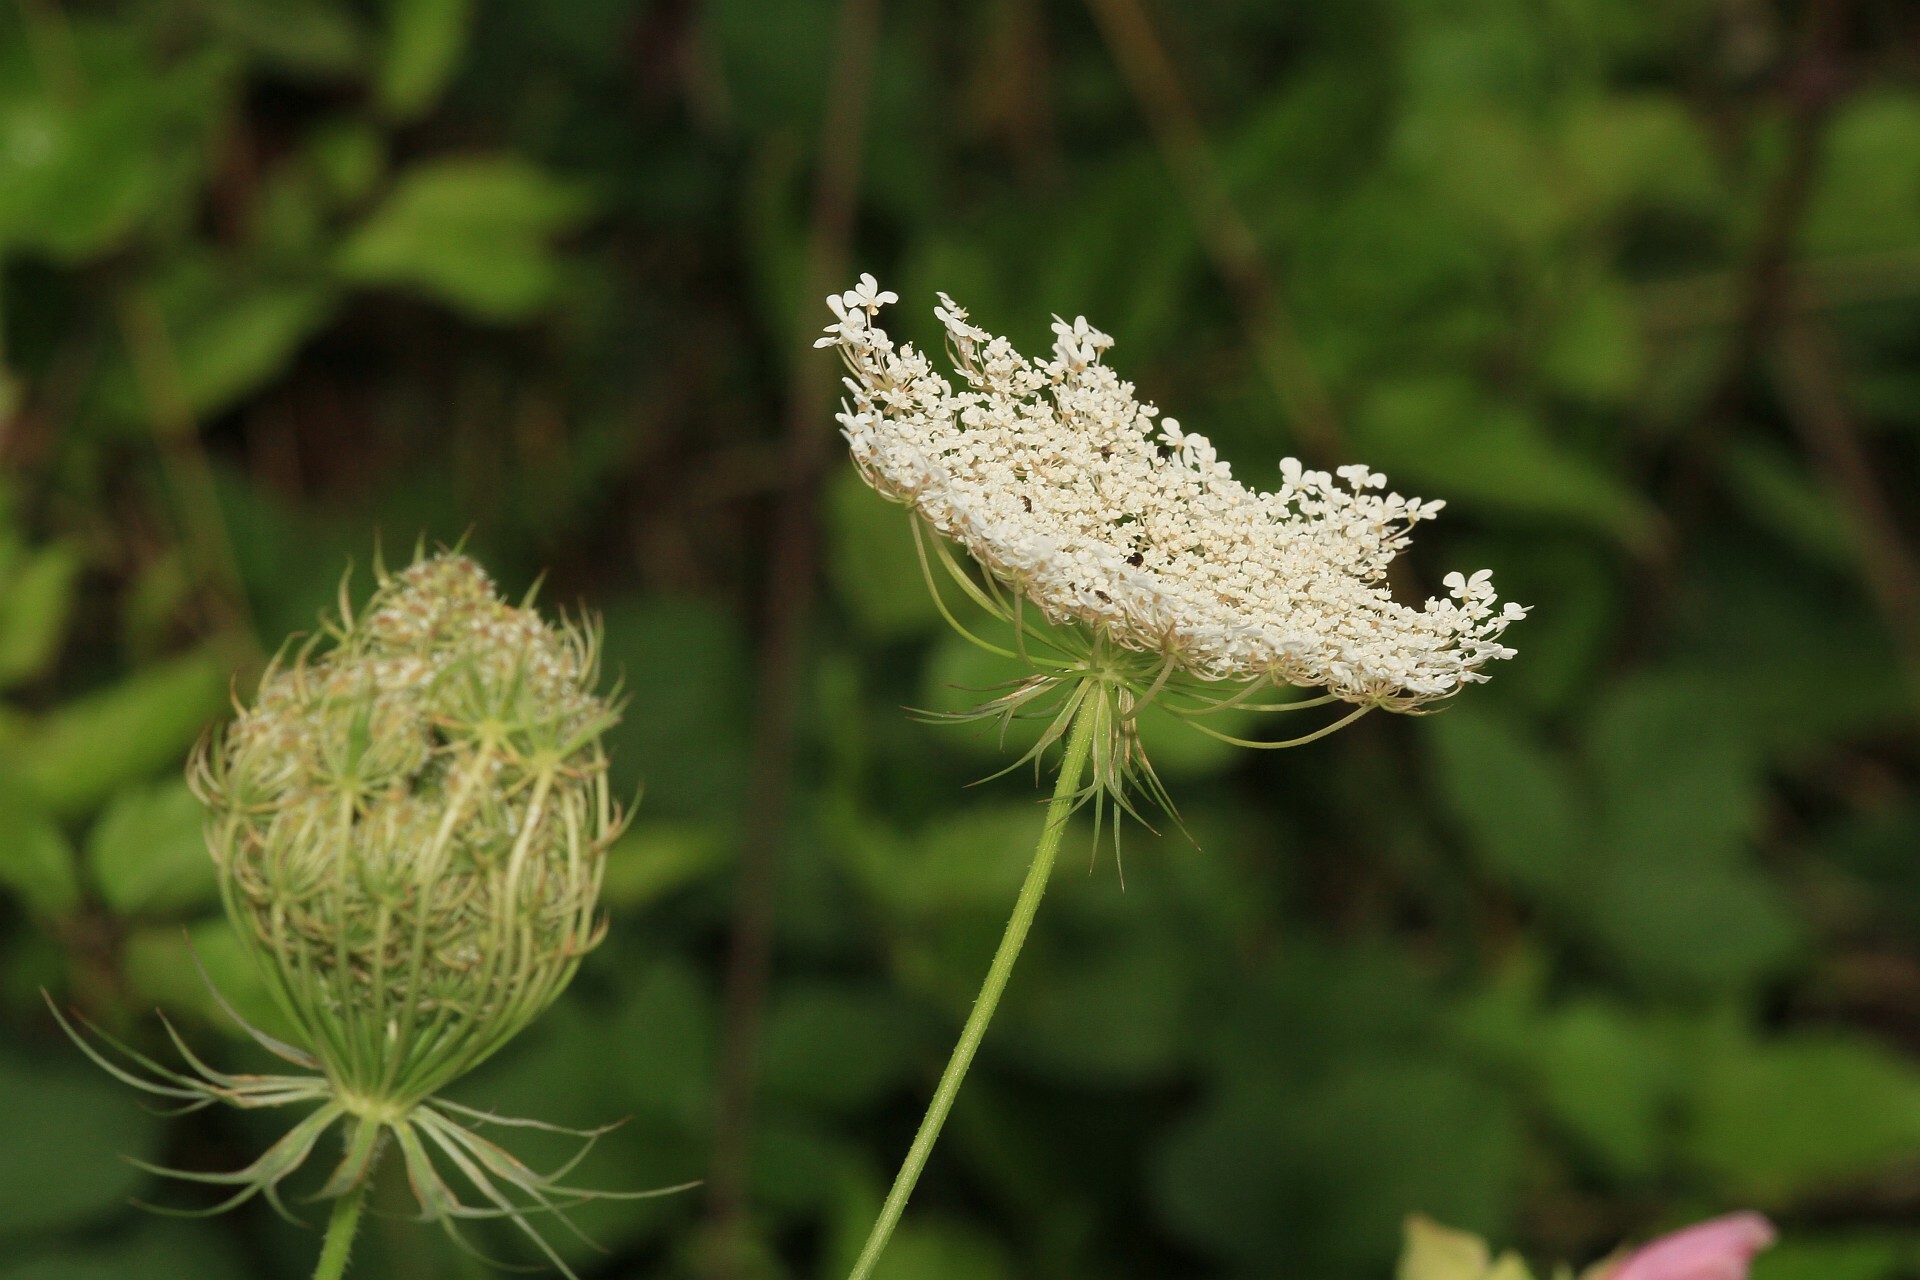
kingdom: Plantae
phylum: Tracheophyta
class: Magnoliopsida
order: Apiales
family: Apiaceae
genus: Daucus
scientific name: Daucus carota
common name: Wild carrot
